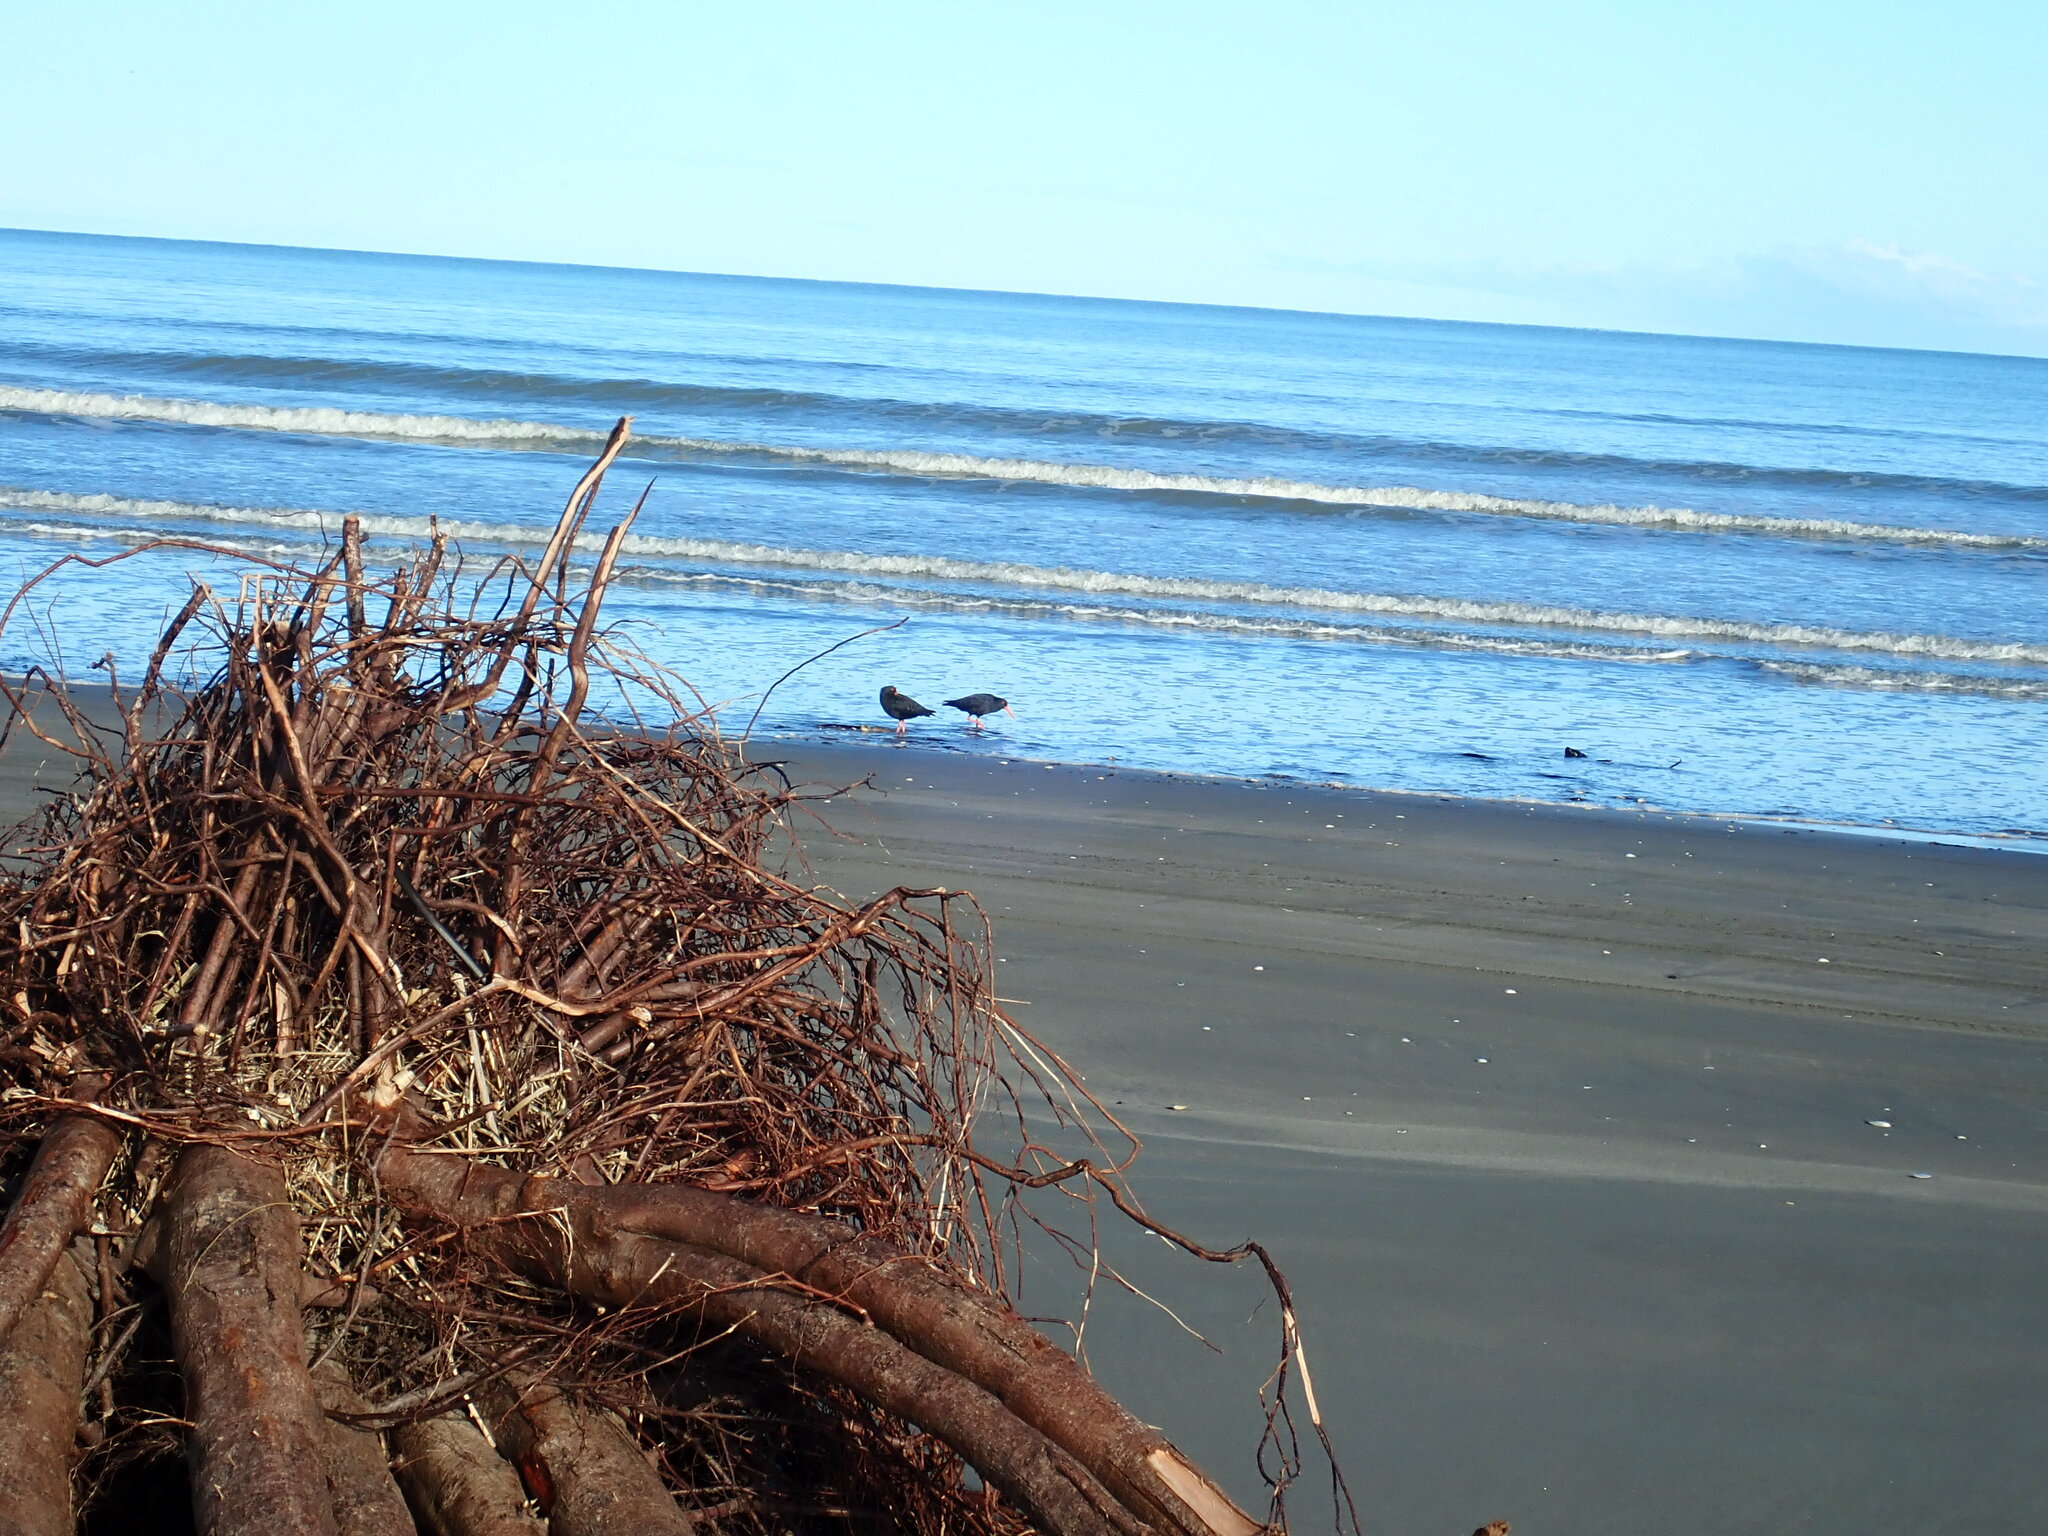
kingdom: Animalia
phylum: Chordata
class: Aves
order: Charadriiformes
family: Haematopodidae
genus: Haematopus
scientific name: Haematopus unicolor
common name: Variable oystercatcher
